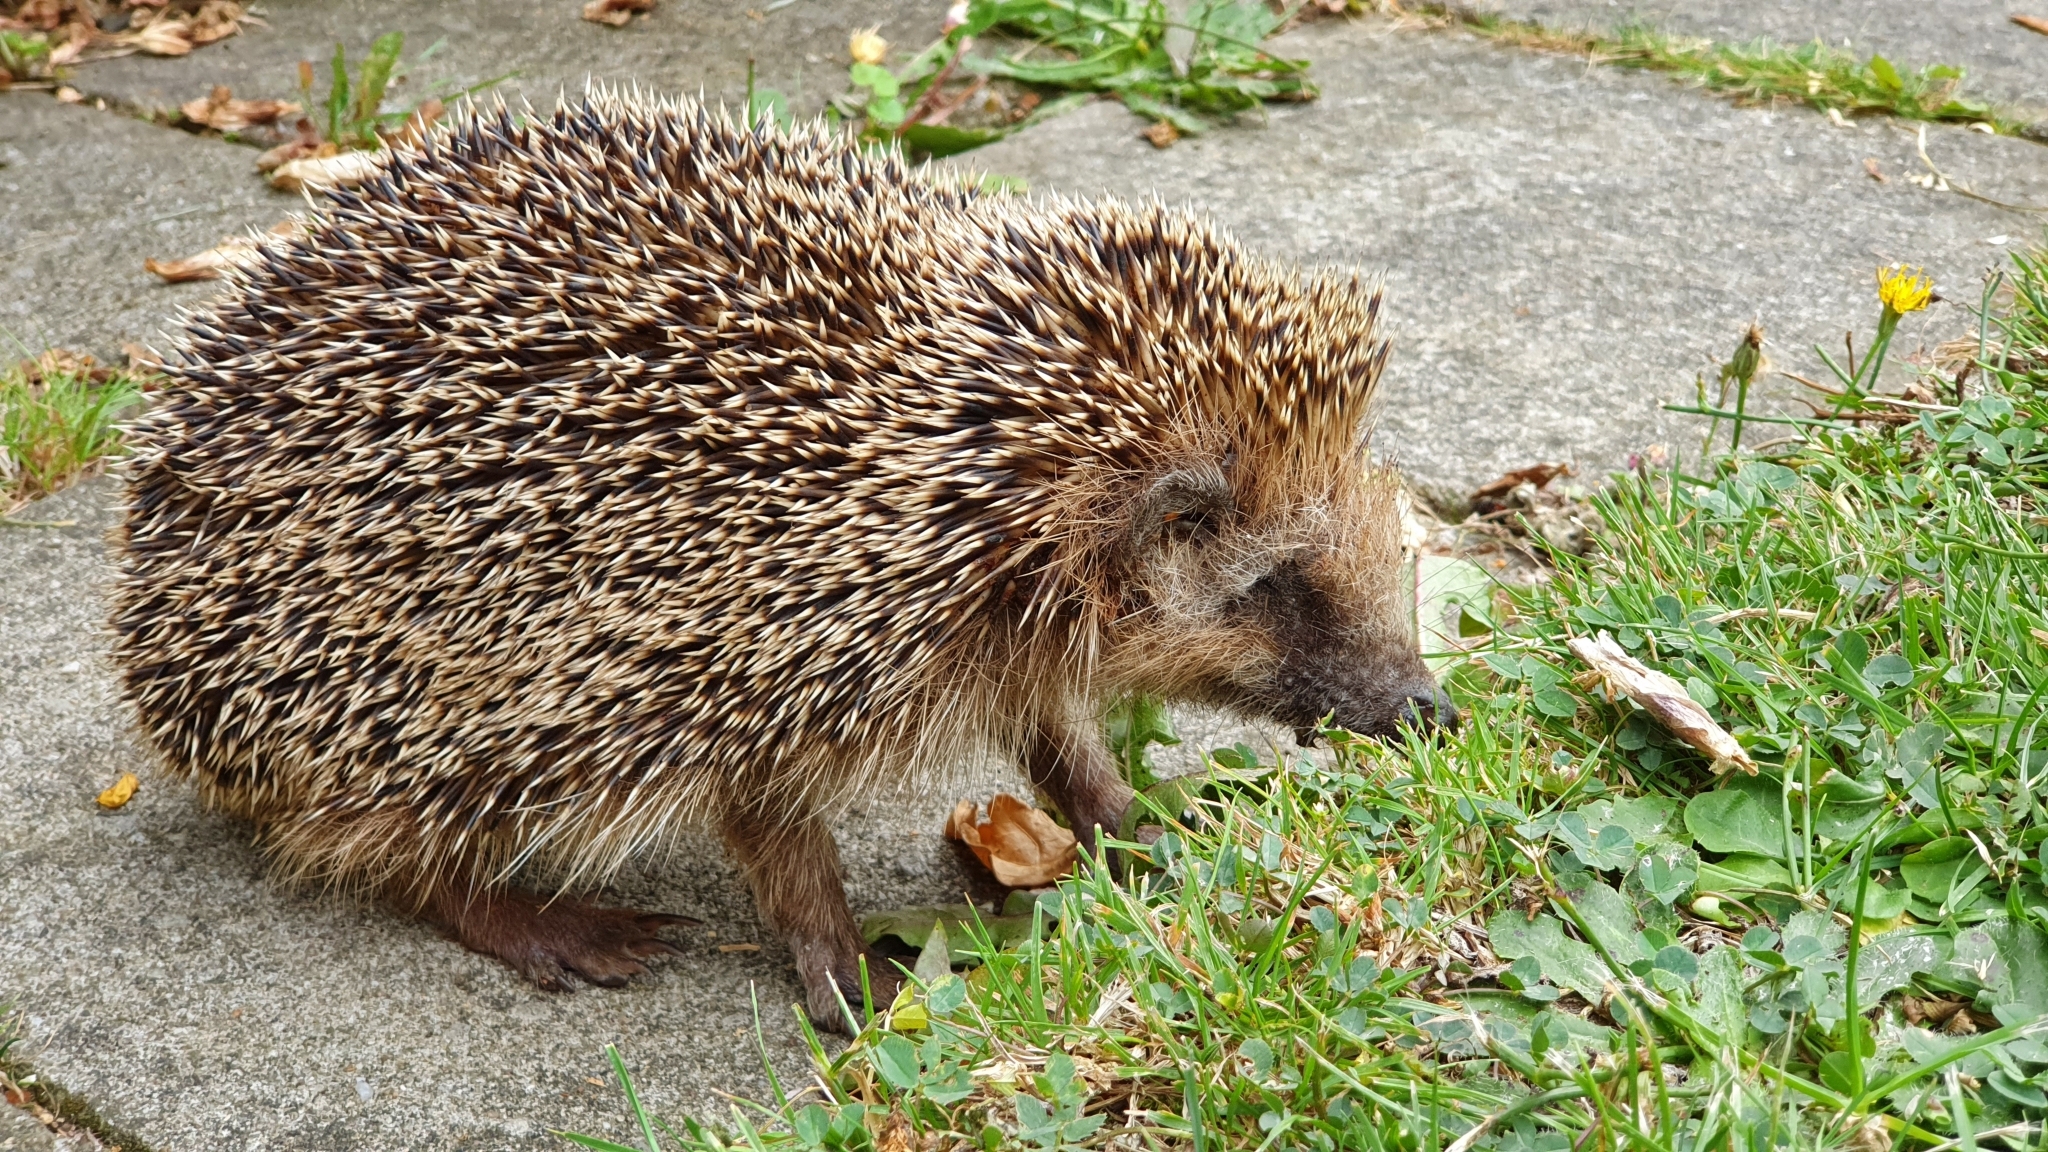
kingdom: Animalia
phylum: Chordata
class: Mammalia
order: Erinaceomorpha
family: Erinaceidae
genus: Erinaceus
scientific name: Erinaceus europaeus
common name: West european hedgehog
